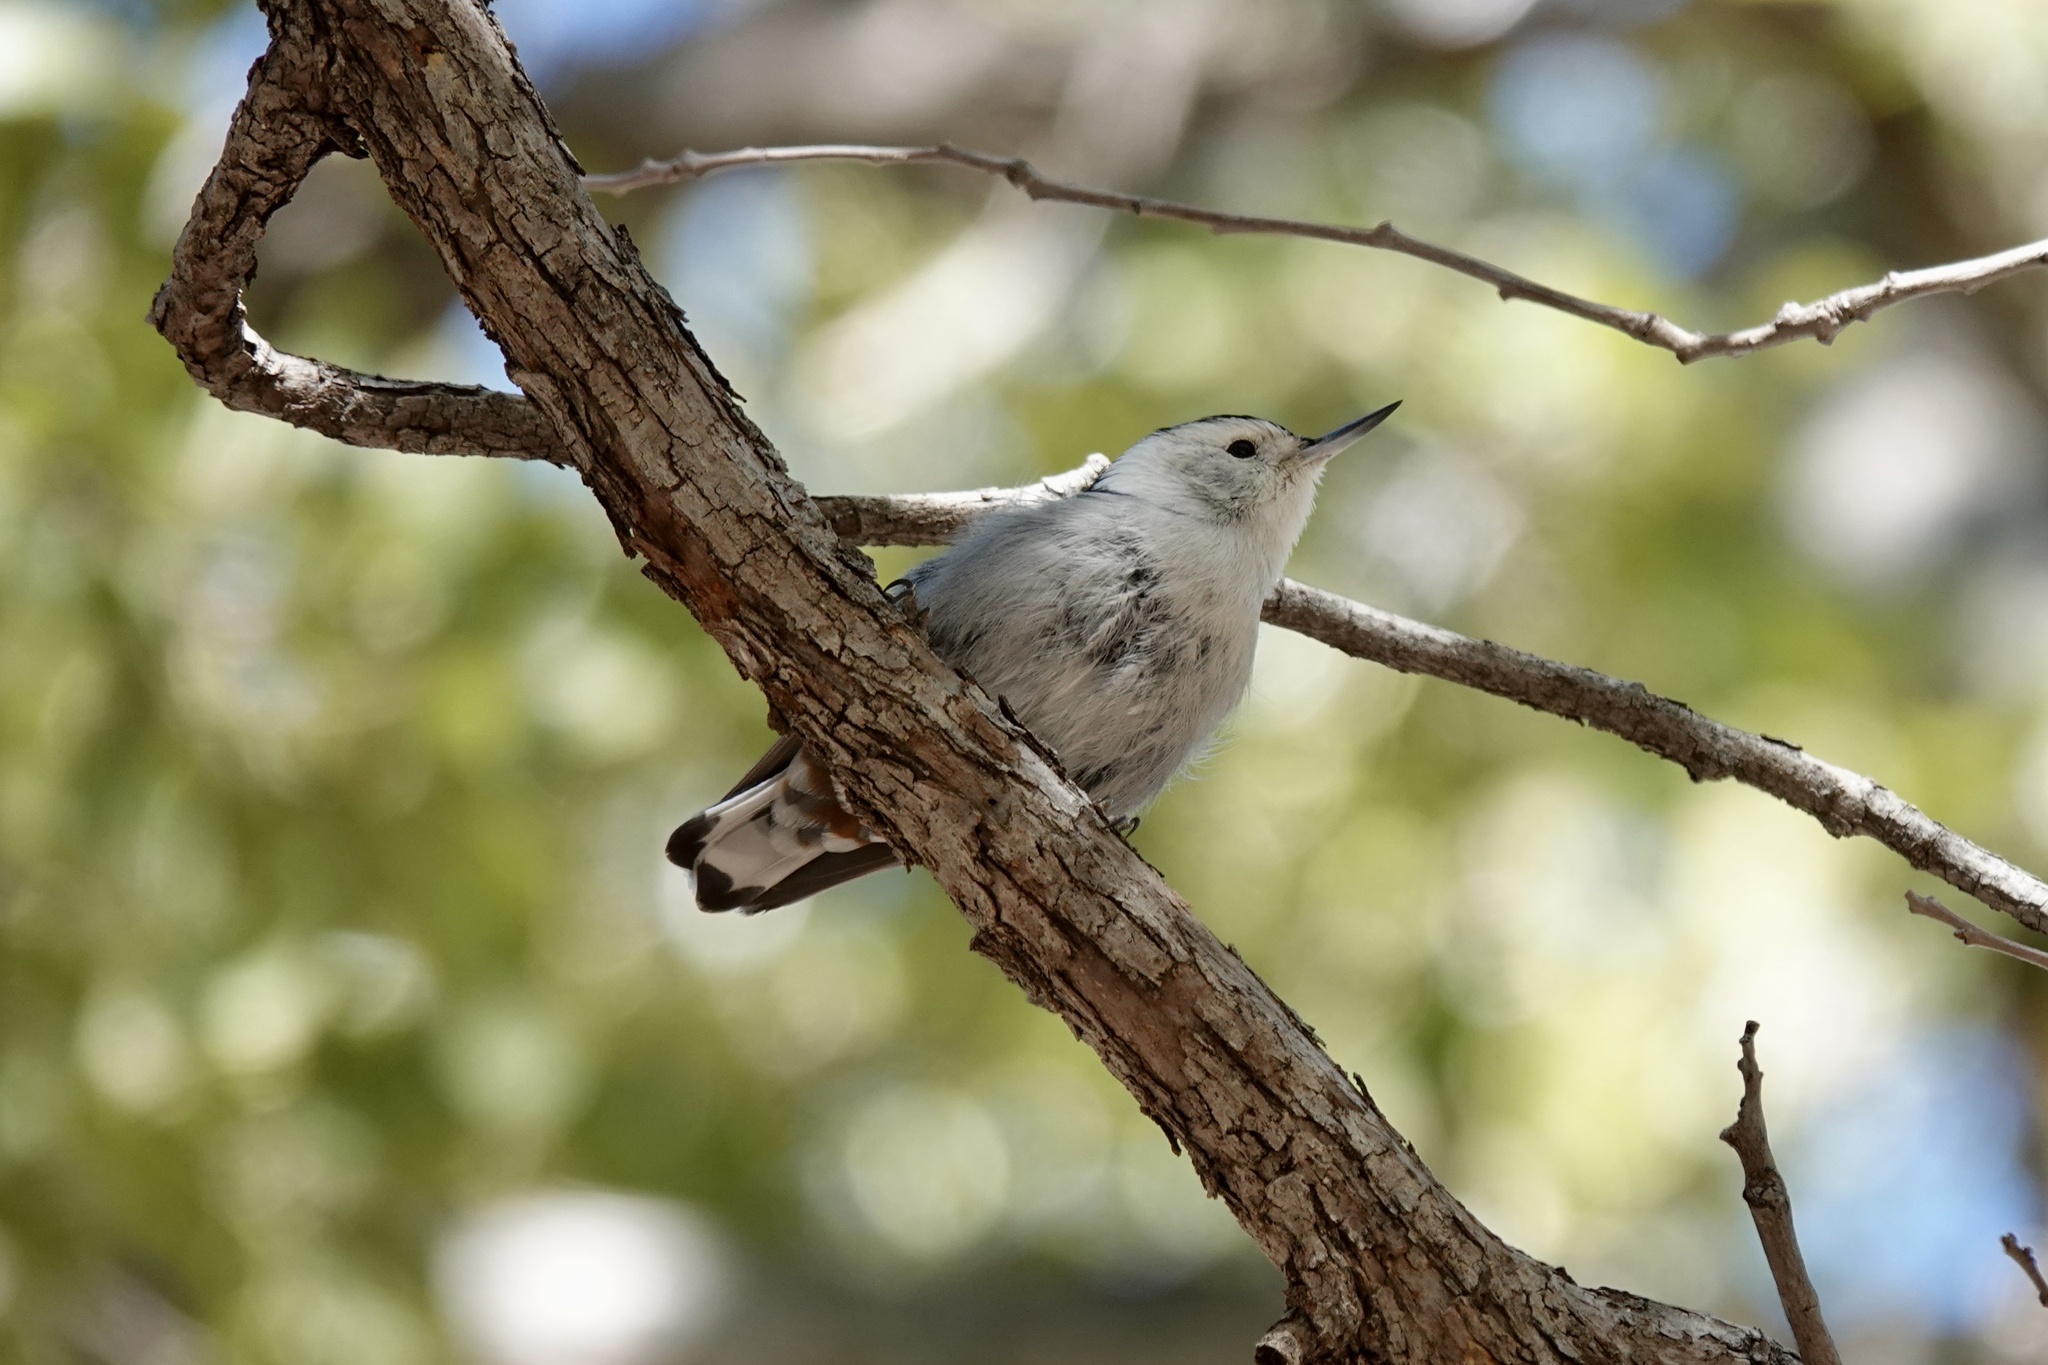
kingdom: Animalia
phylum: Chordata
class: Aves
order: Passeriformes
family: Sittidae
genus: Sitta
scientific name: Sitta carolinensis
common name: White-breasted nuthatch
